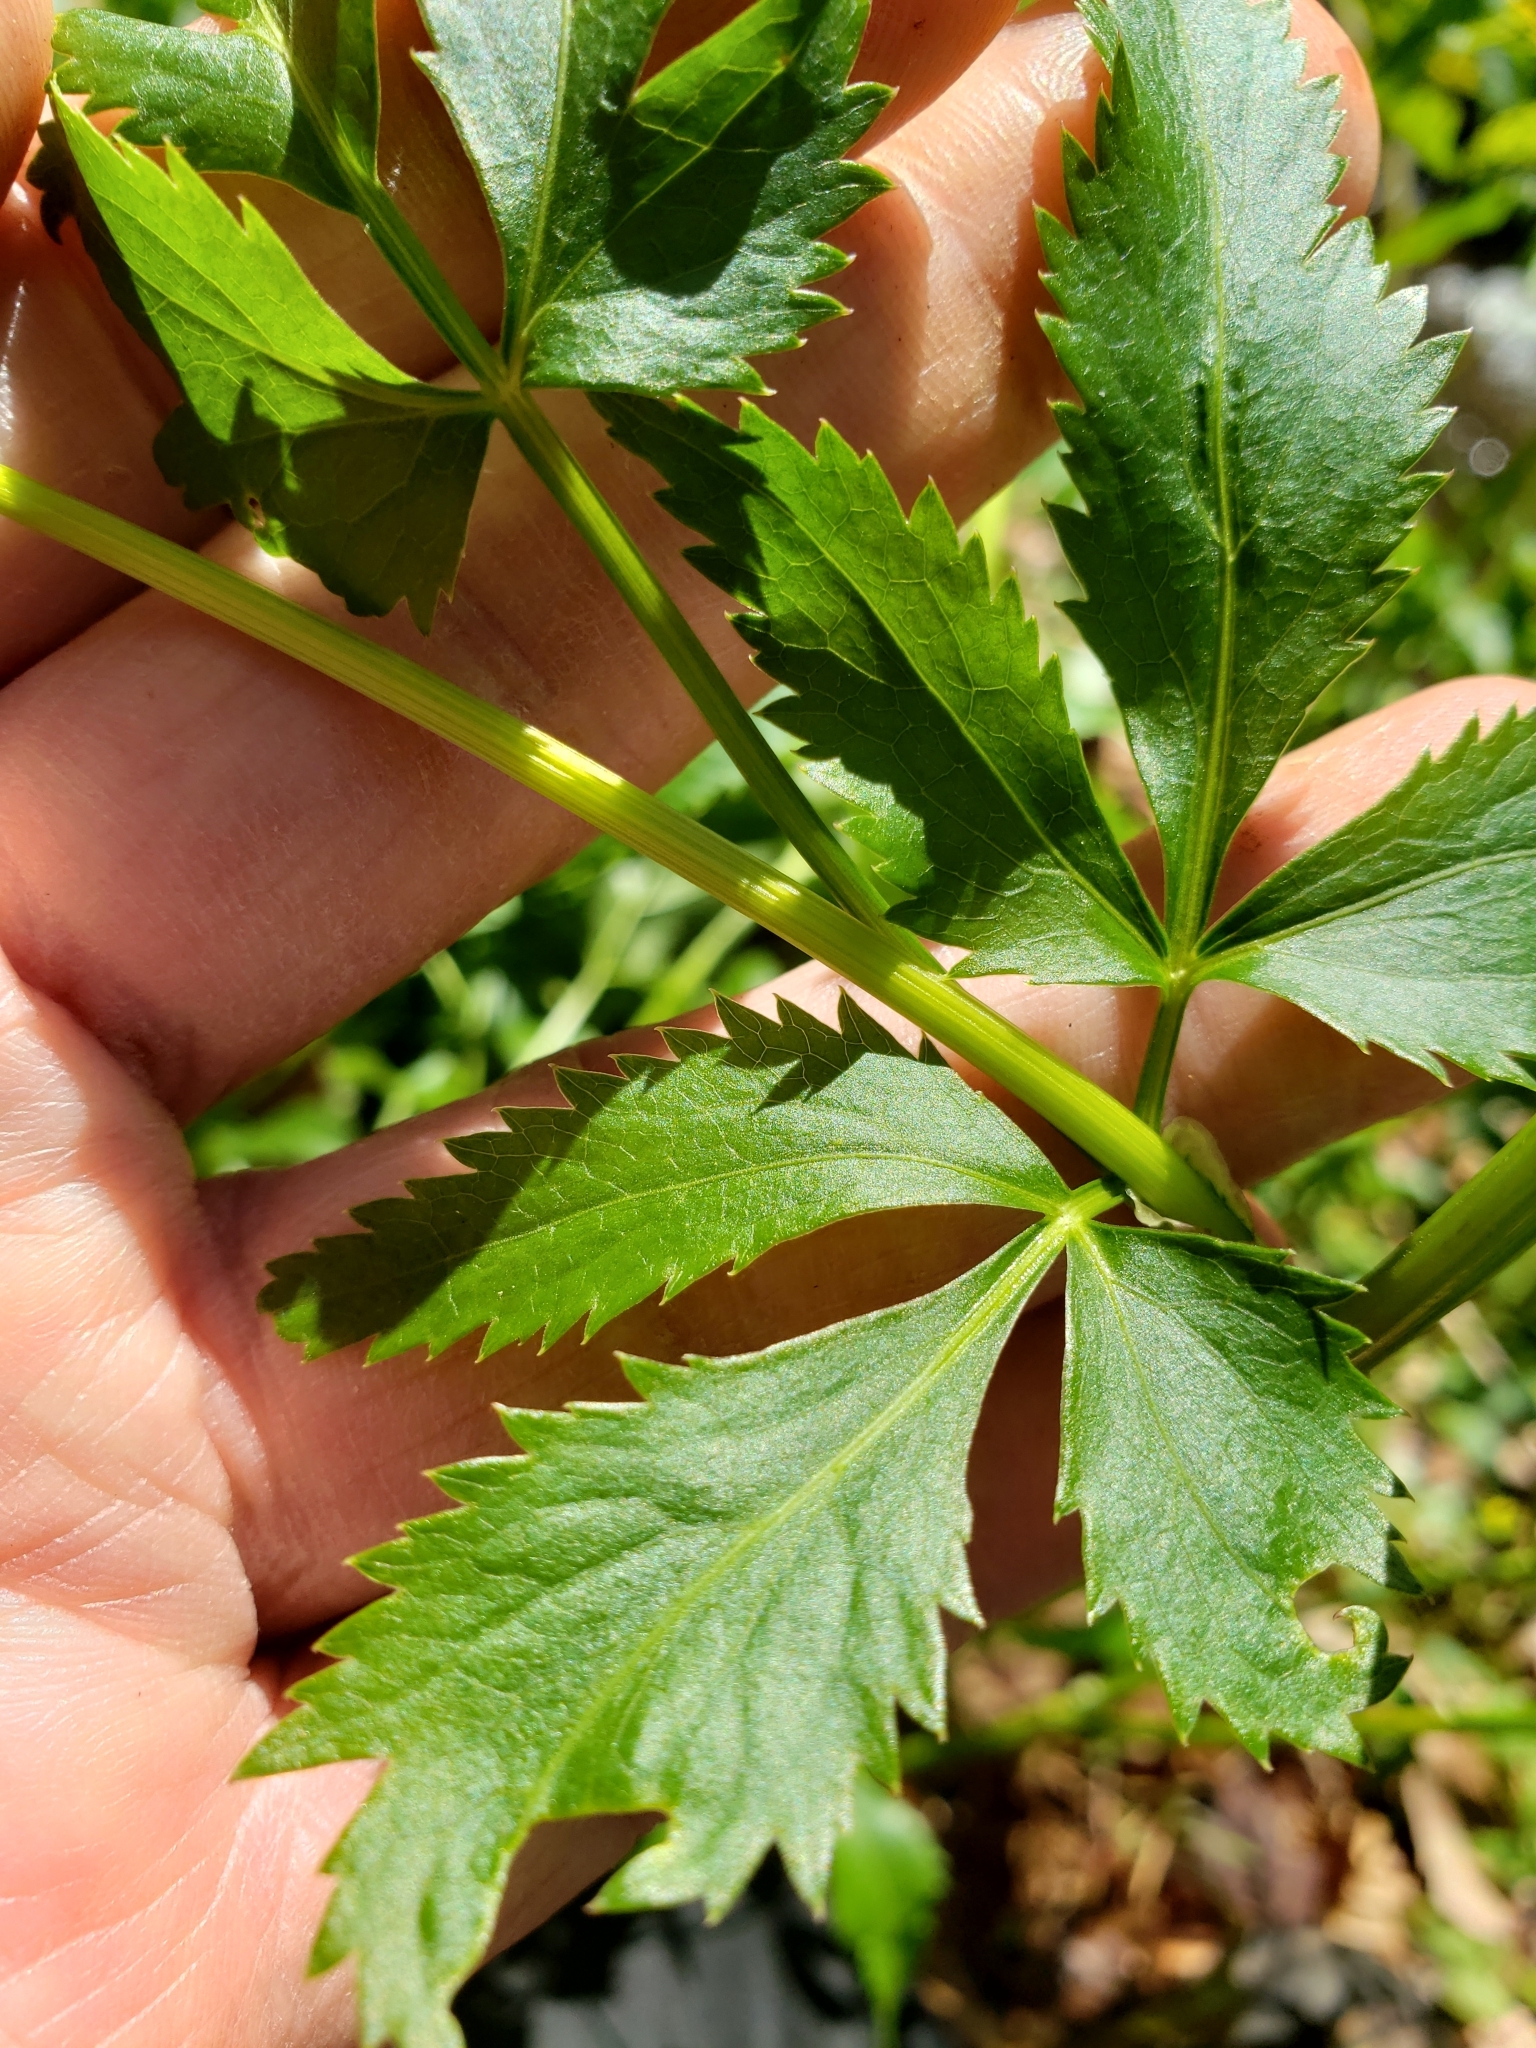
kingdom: Plantae
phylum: Tracheophyta
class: Magnoliopsida
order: Apiales
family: Apiaceae
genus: Zizia
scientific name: Zizia aurea
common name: Golden alexanders
